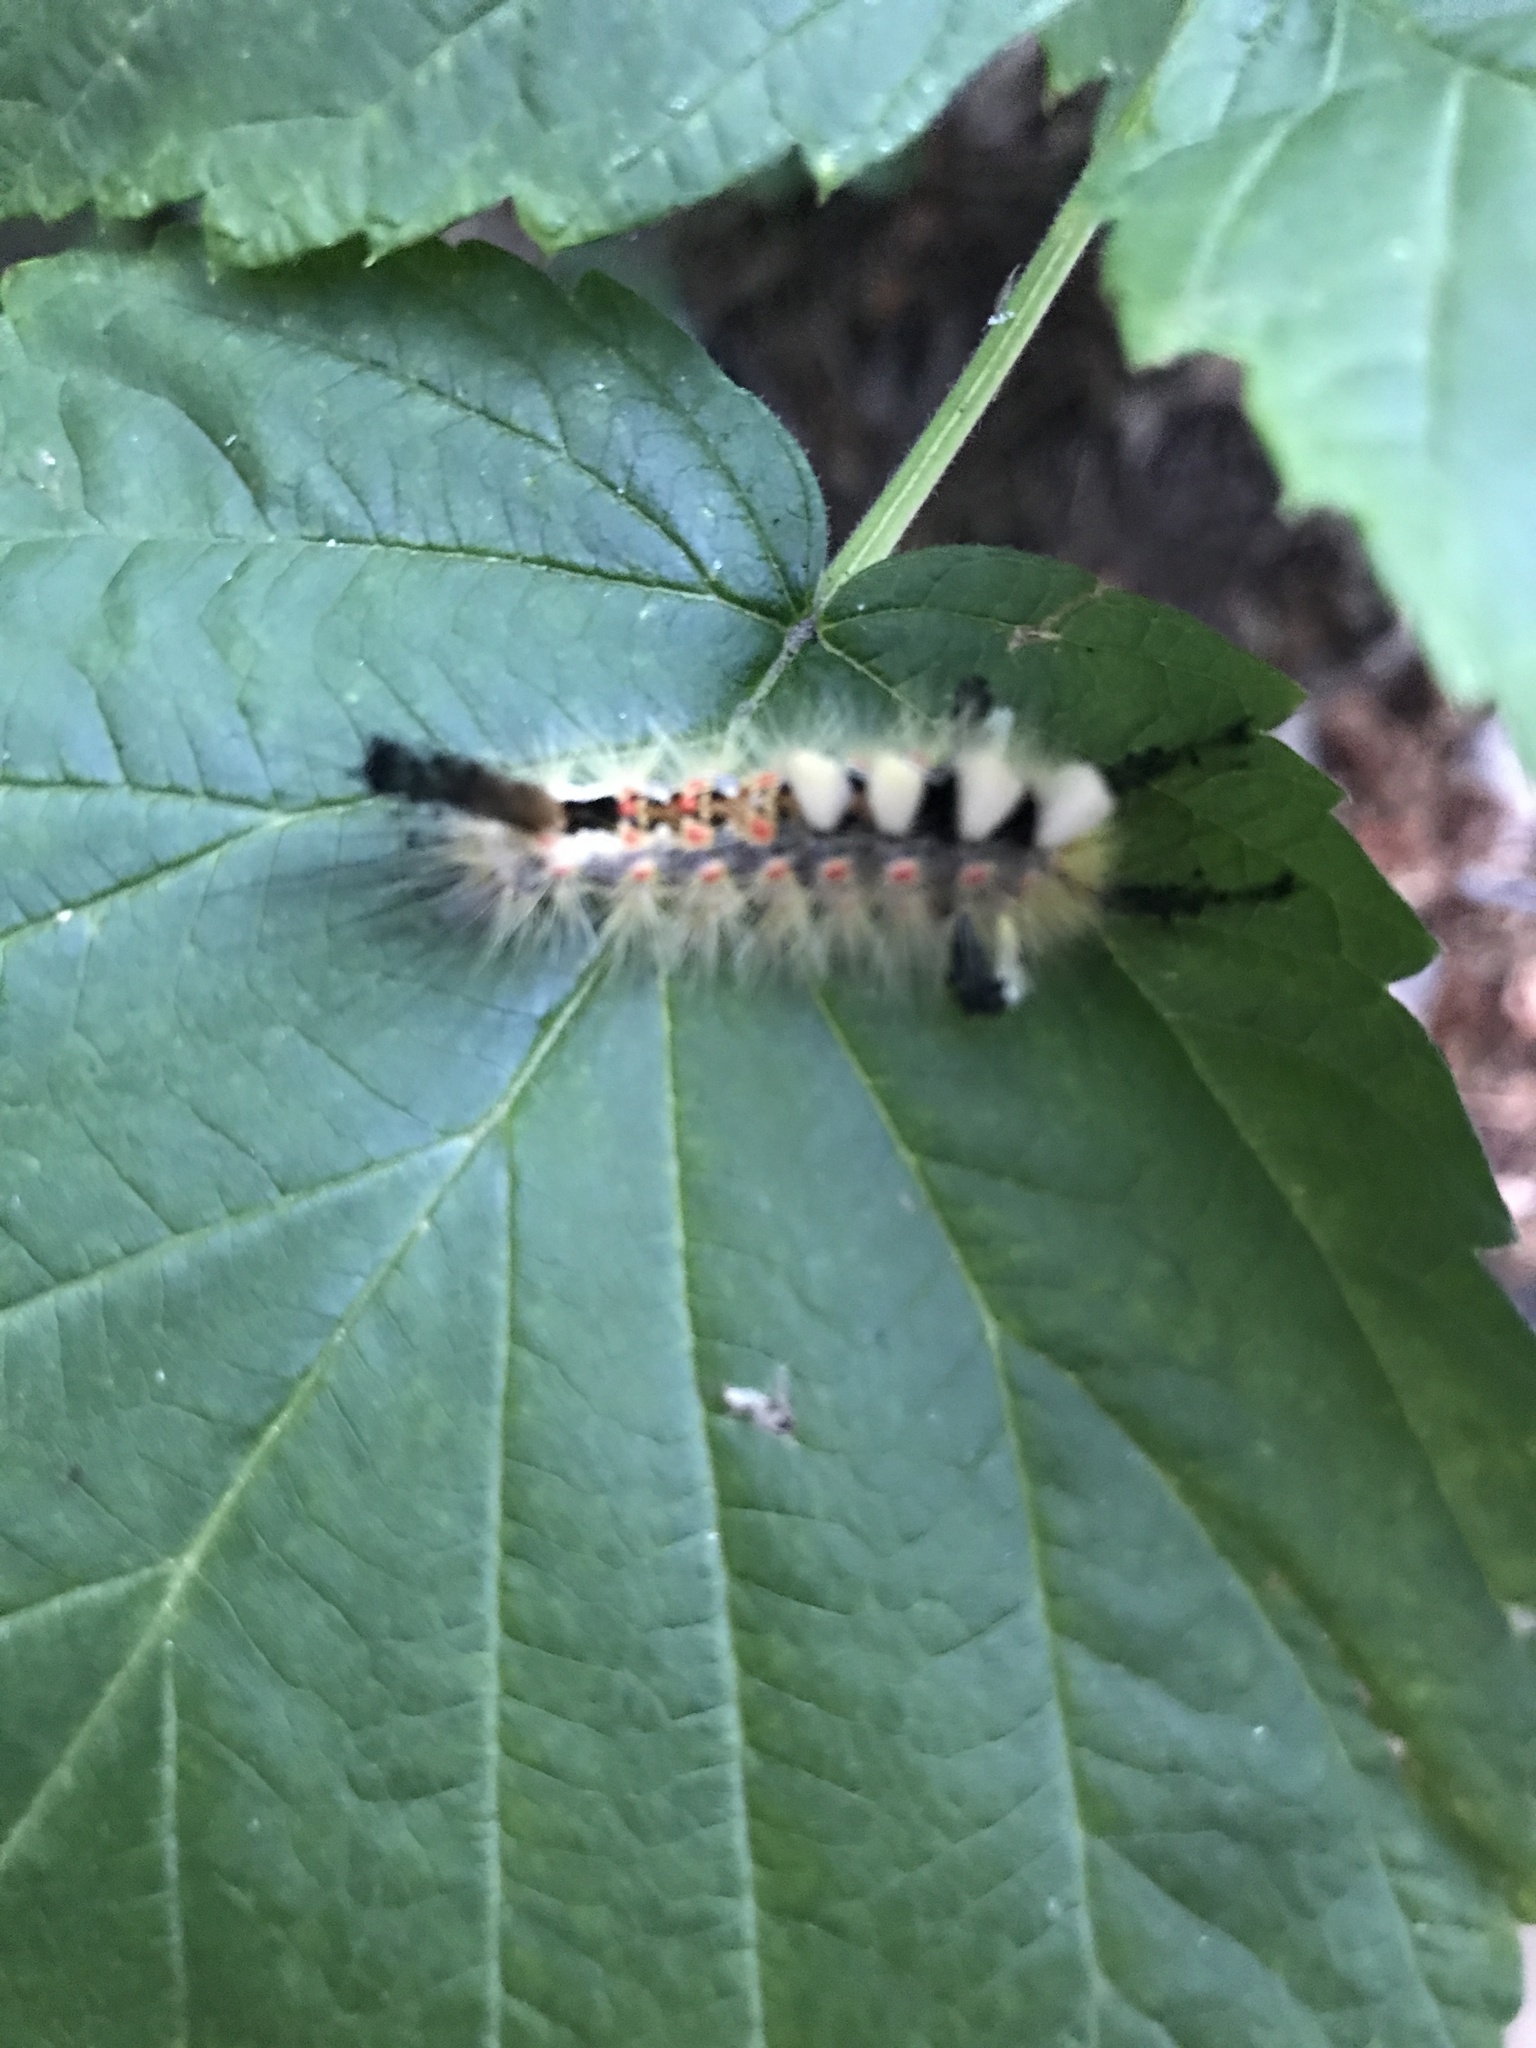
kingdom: Animalia
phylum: Arthropoda
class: Insecta
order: Lepidoptera
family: Erebidae
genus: Orgyia
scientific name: Orgyia antiqua
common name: Vapourer
